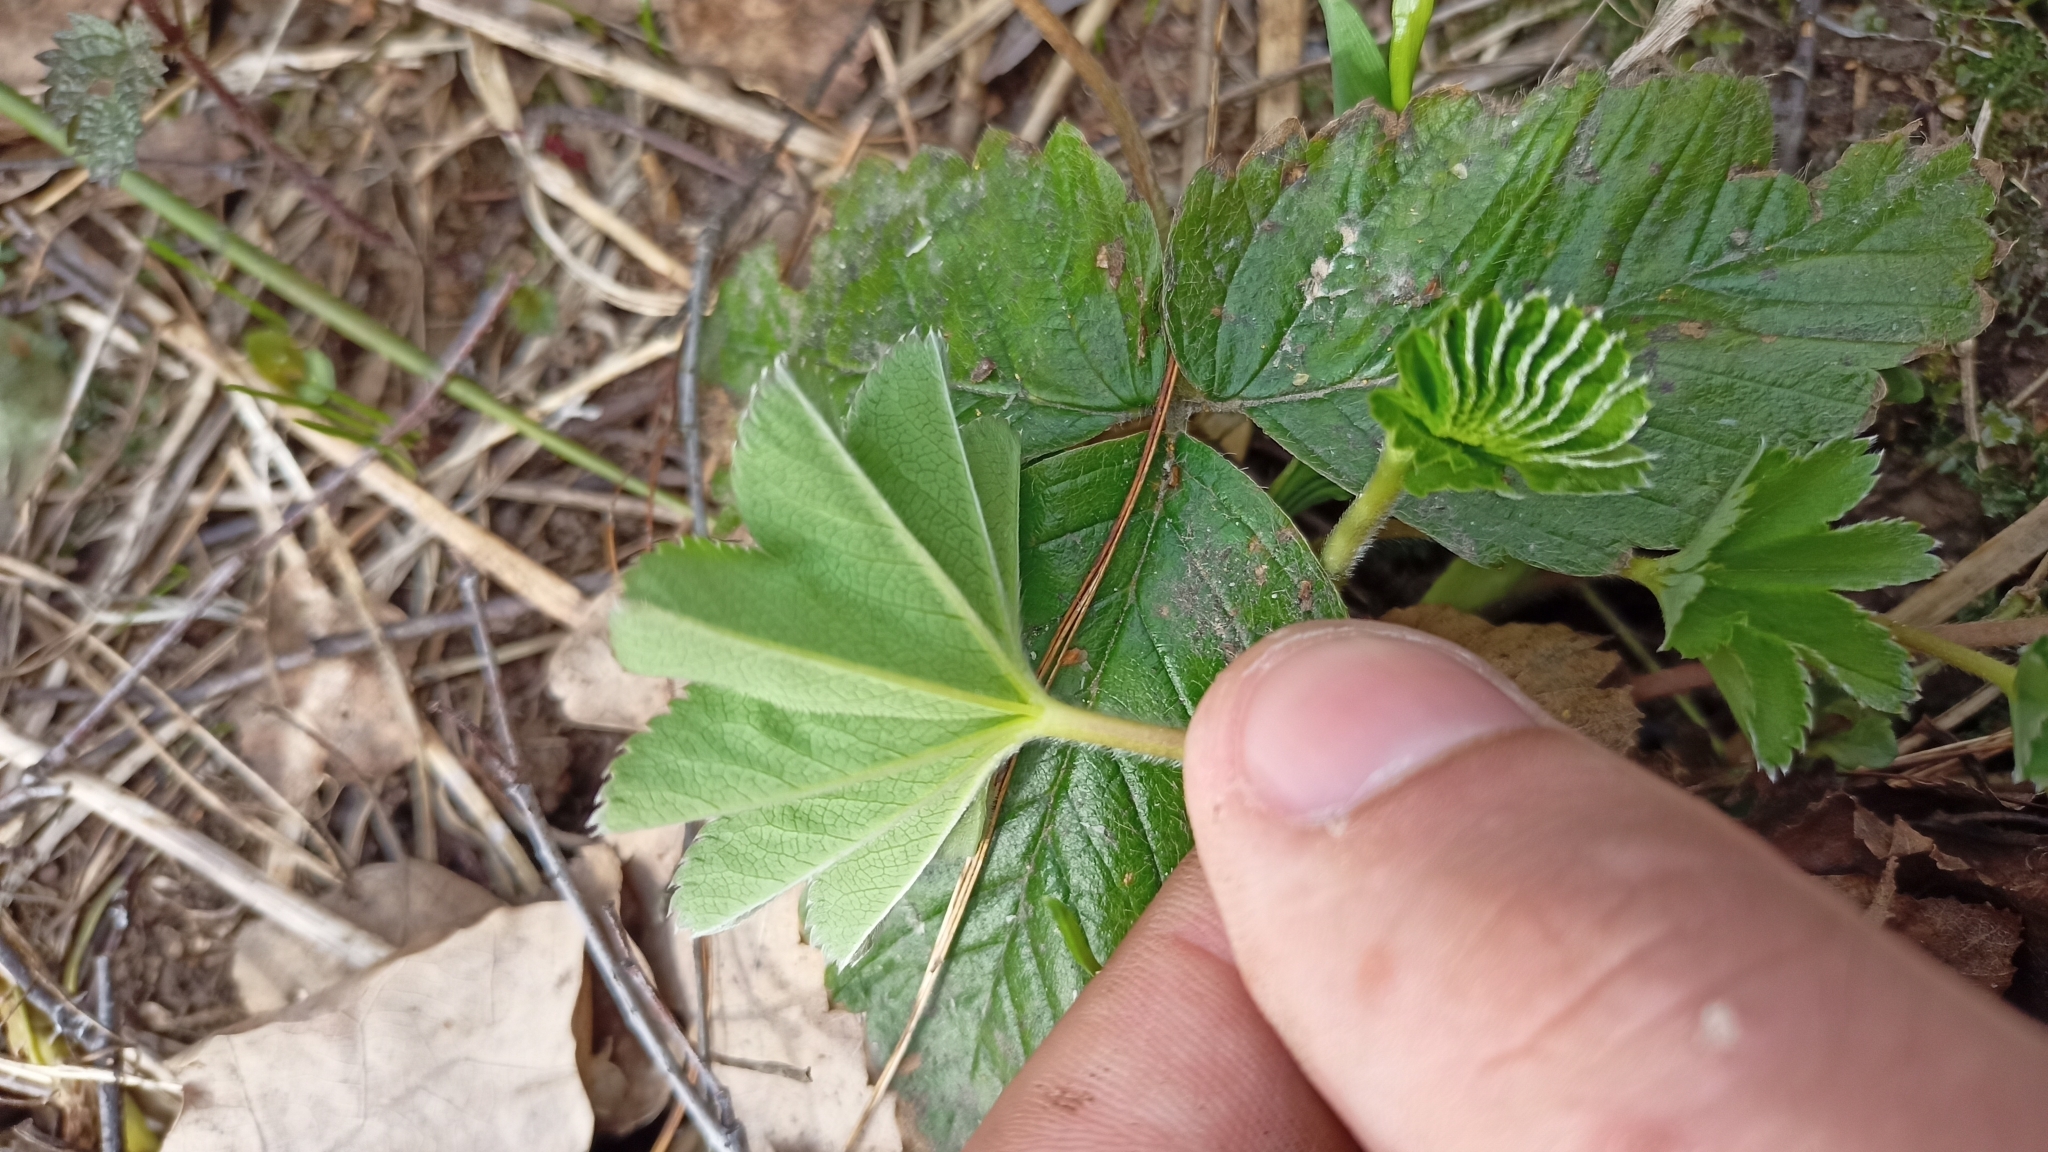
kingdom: Plantae
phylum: Tracheophyta
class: Magnoliopsida
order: Rosales
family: Rosaceae
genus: Alchemilla
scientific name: Alchemilla
